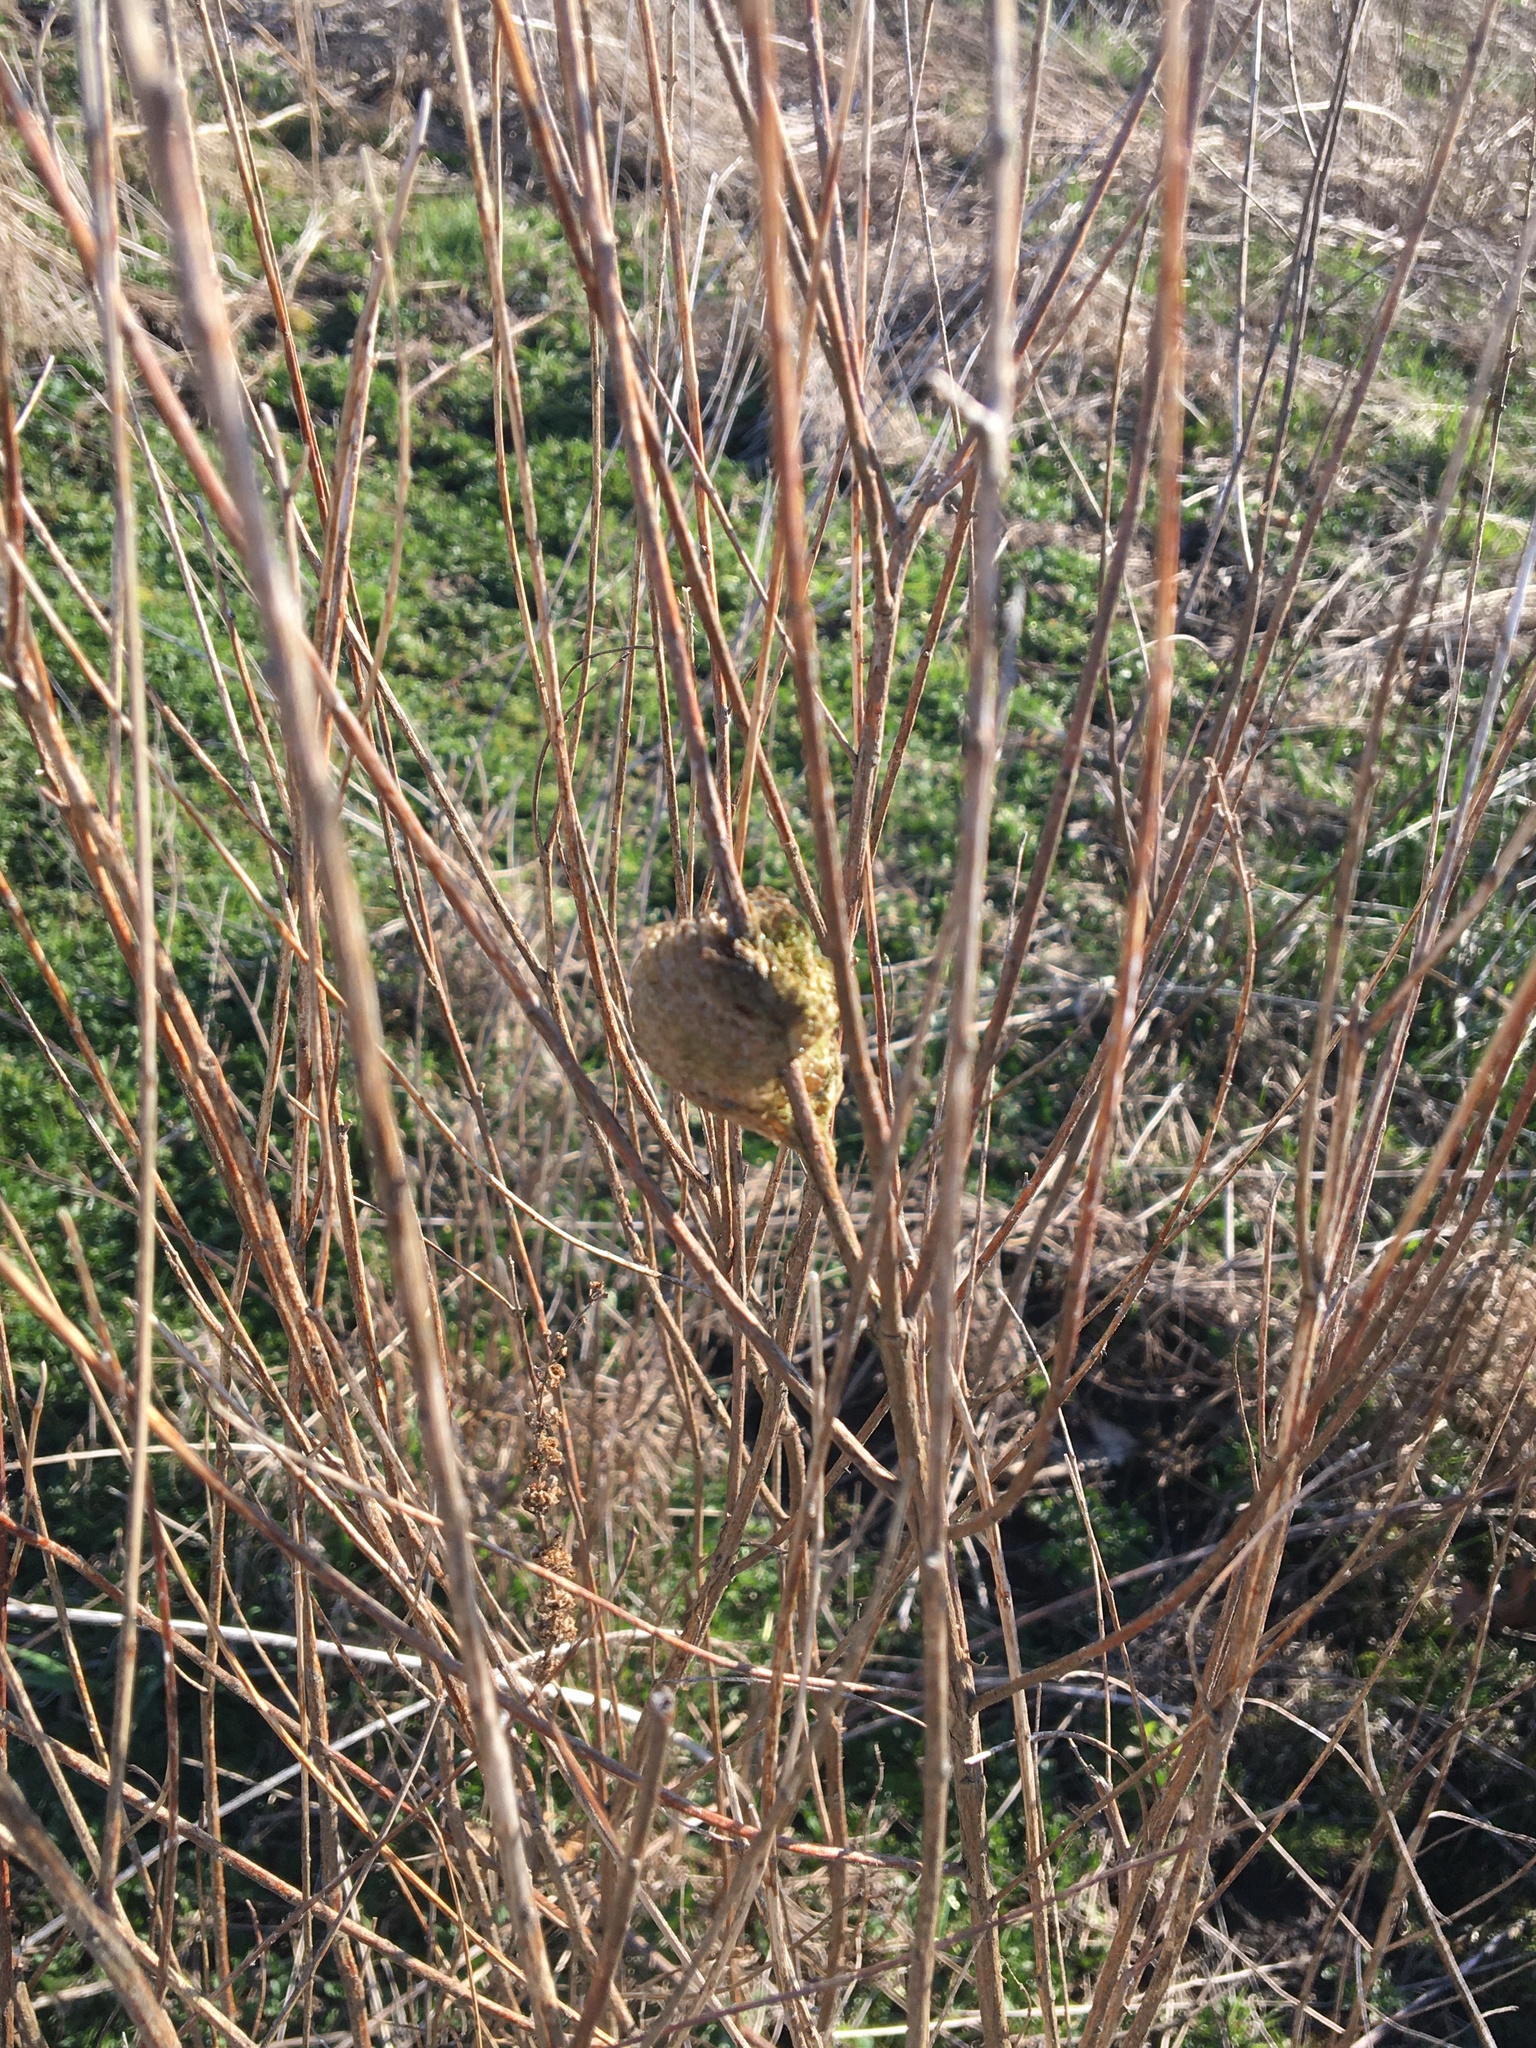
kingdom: Animalia
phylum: Arthropoda
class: Insecta
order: Mantodea
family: Mantidae
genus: Tenodera
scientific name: Tenodera sinensis
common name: Chinese mantis
